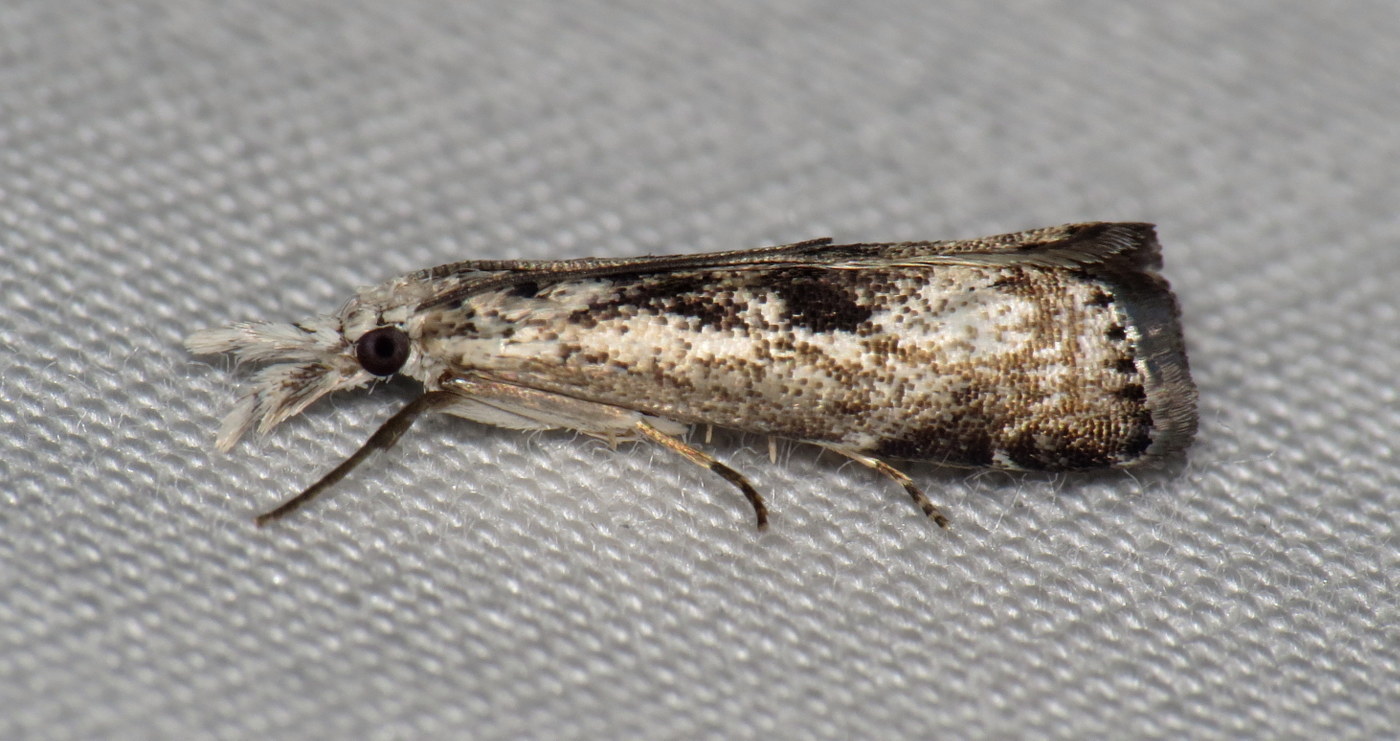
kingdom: Animalia
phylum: Arthropoda
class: Insecta
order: Lepidoptera
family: Crambidae
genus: Microcrambus
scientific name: Microcrambus immunellus
